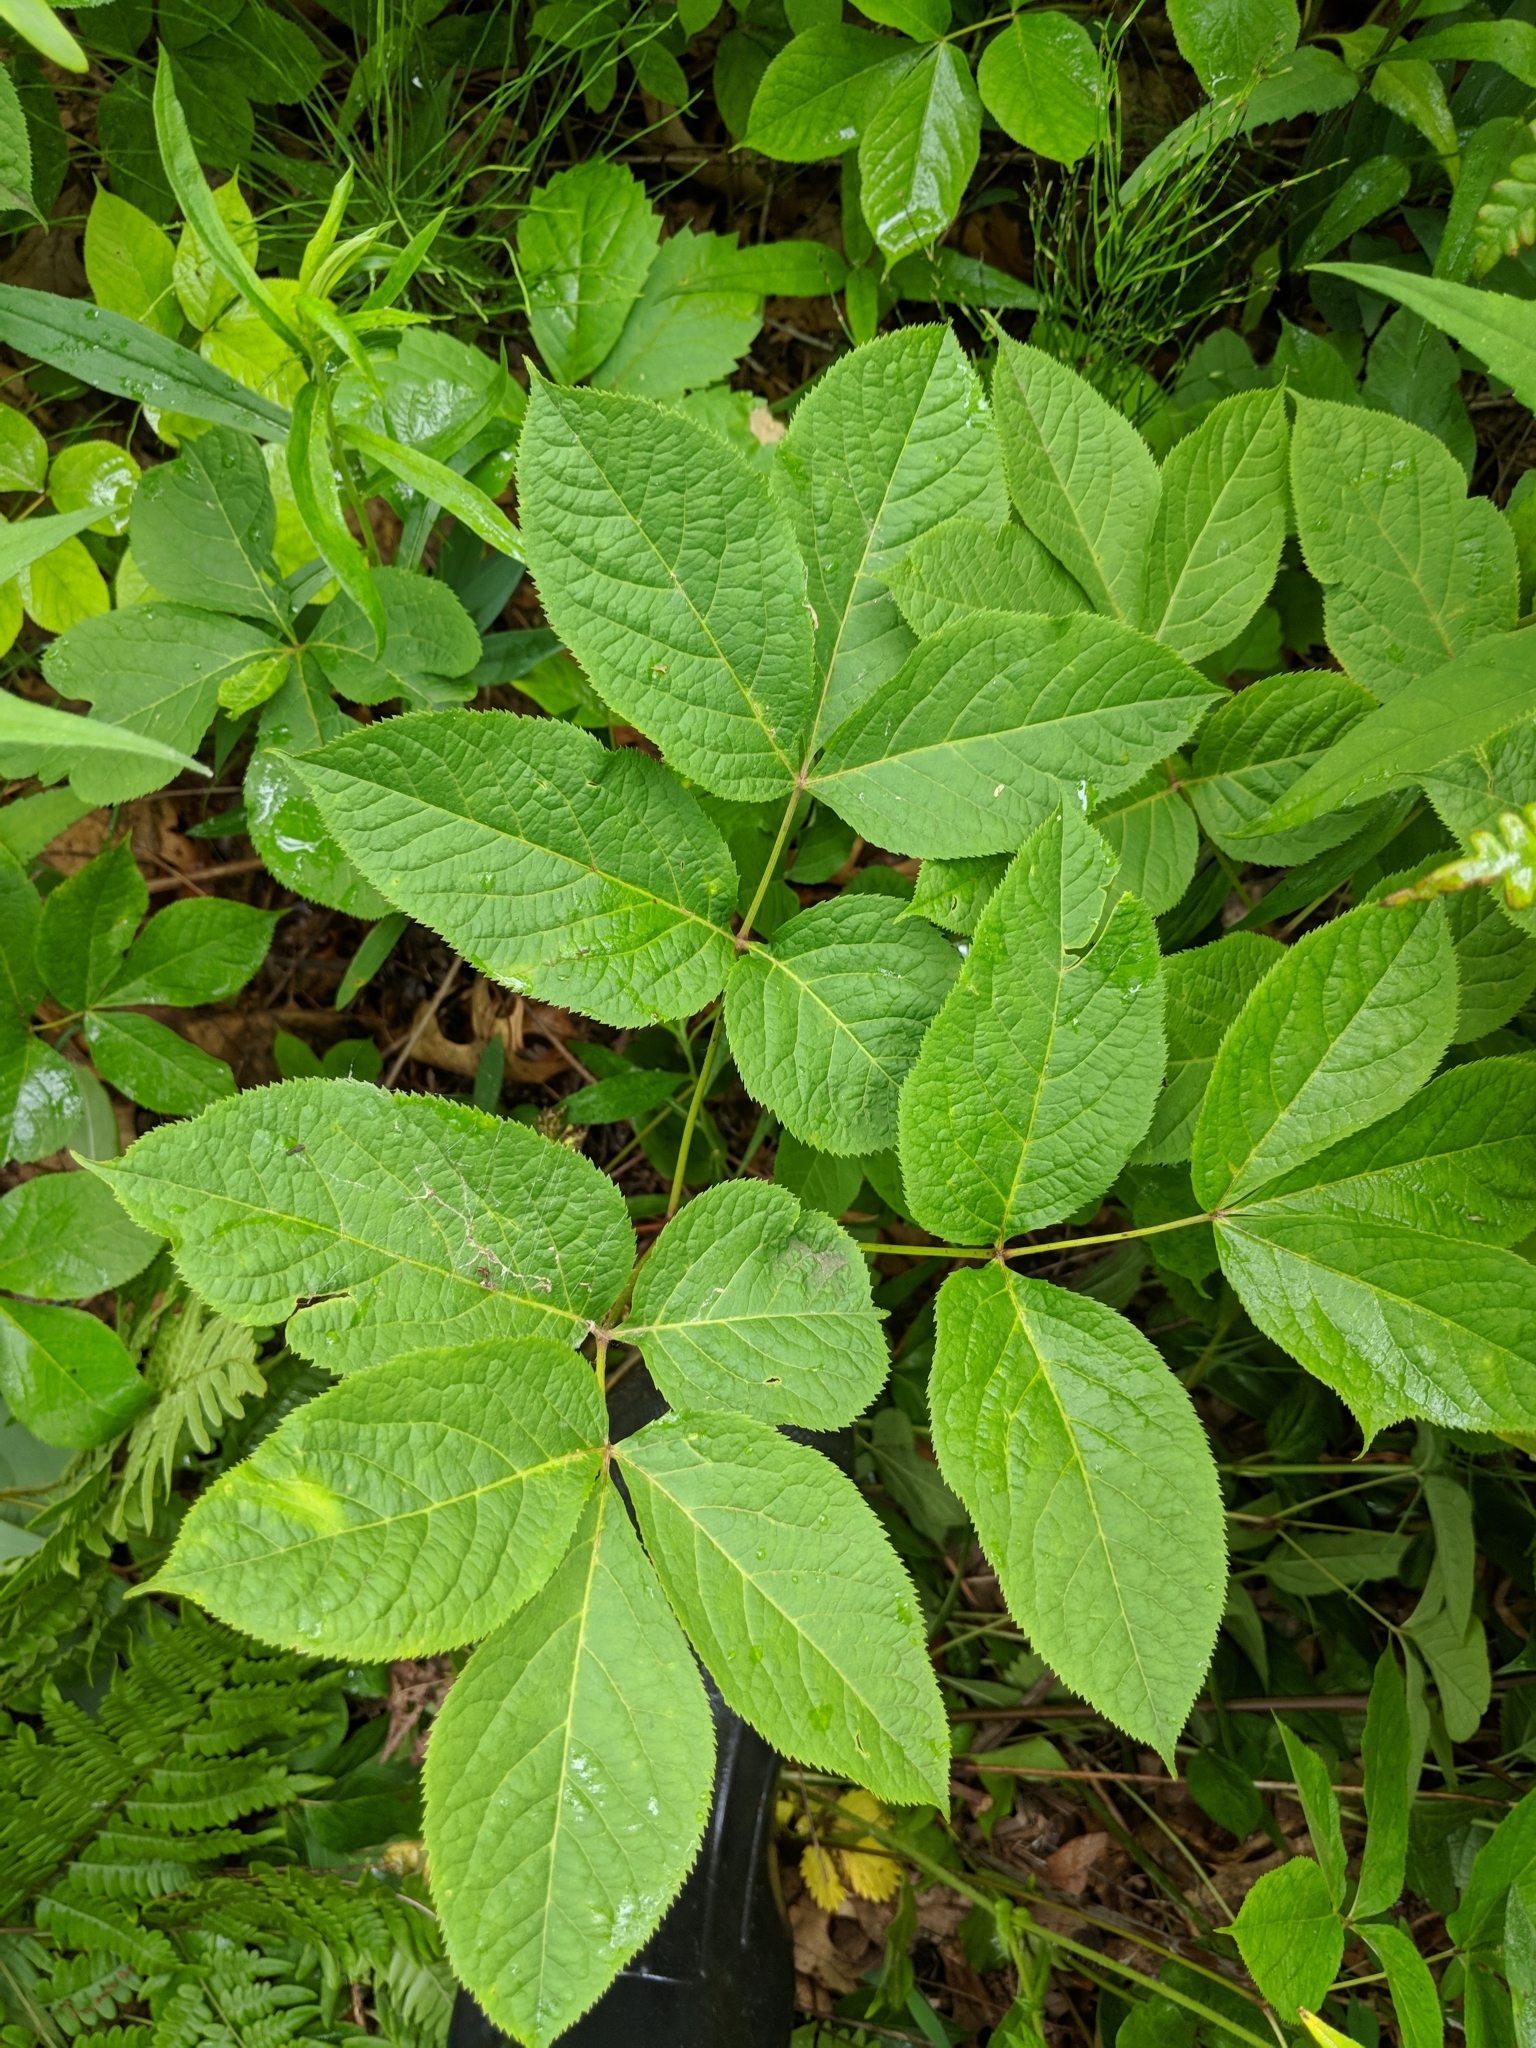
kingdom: Plantae
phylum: Tracheophyta
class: Magnoliopsida
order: Apiales
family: Araliaceae
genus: Aralia
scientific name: Aralia nudicaulis
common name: Wild sarsaparilla
